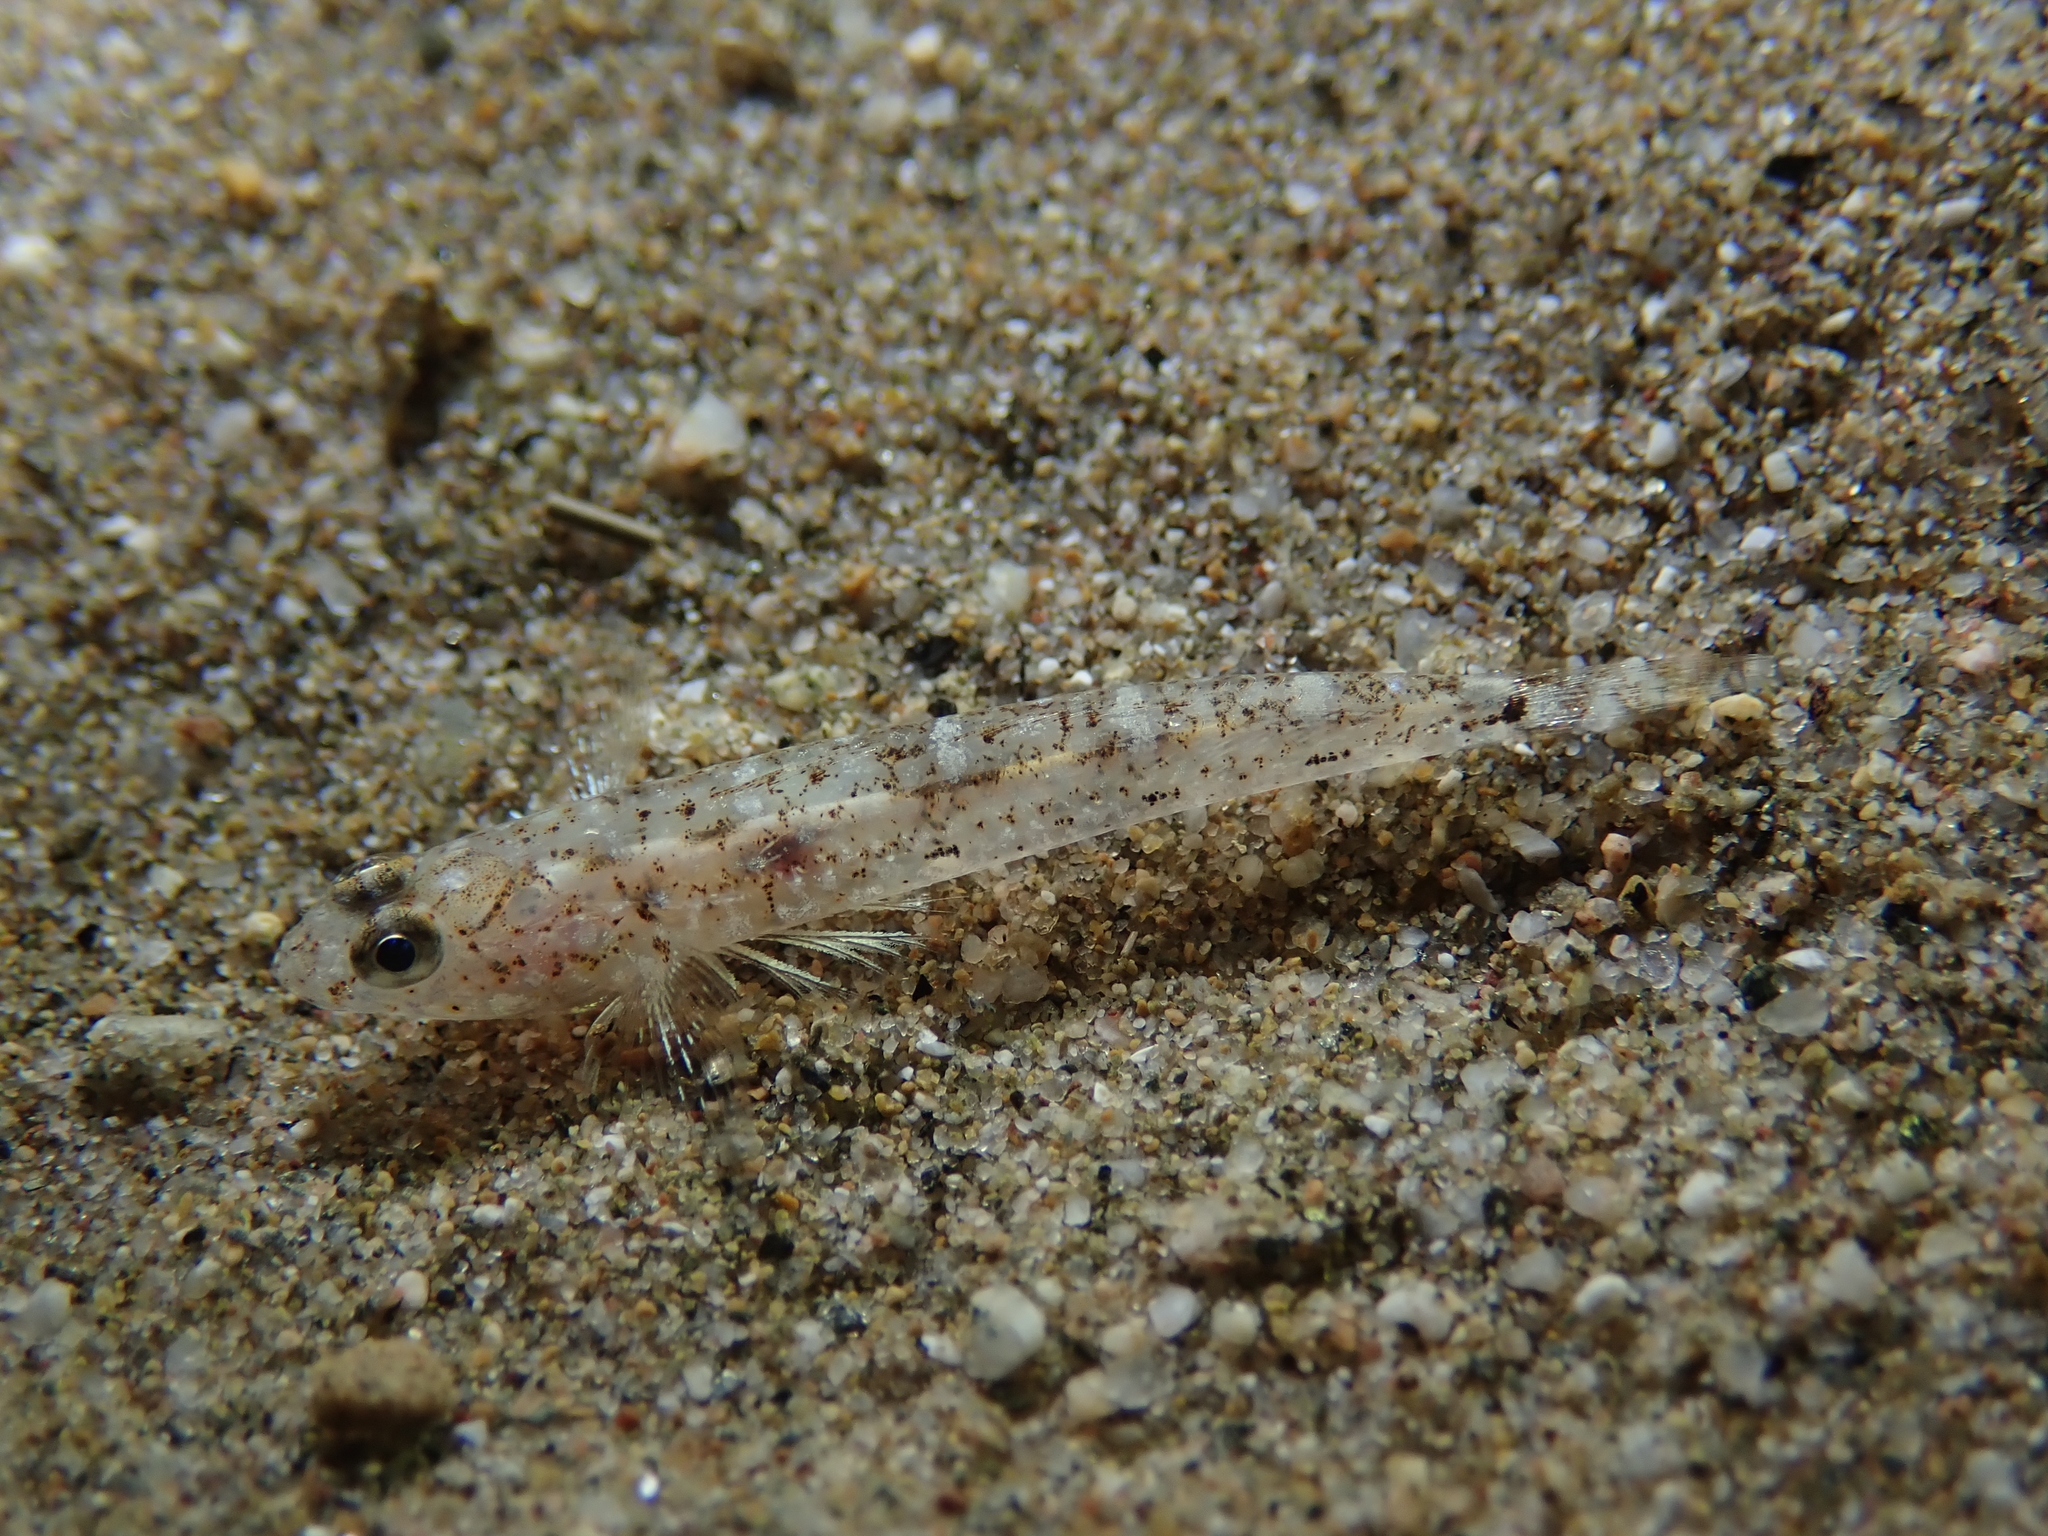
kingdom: Animalia
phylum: Chordata
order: Perciformes
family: Gobiidae
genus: Pomatoschistus
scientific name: Pomatoschistus marmoratus
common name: Marbled goby
